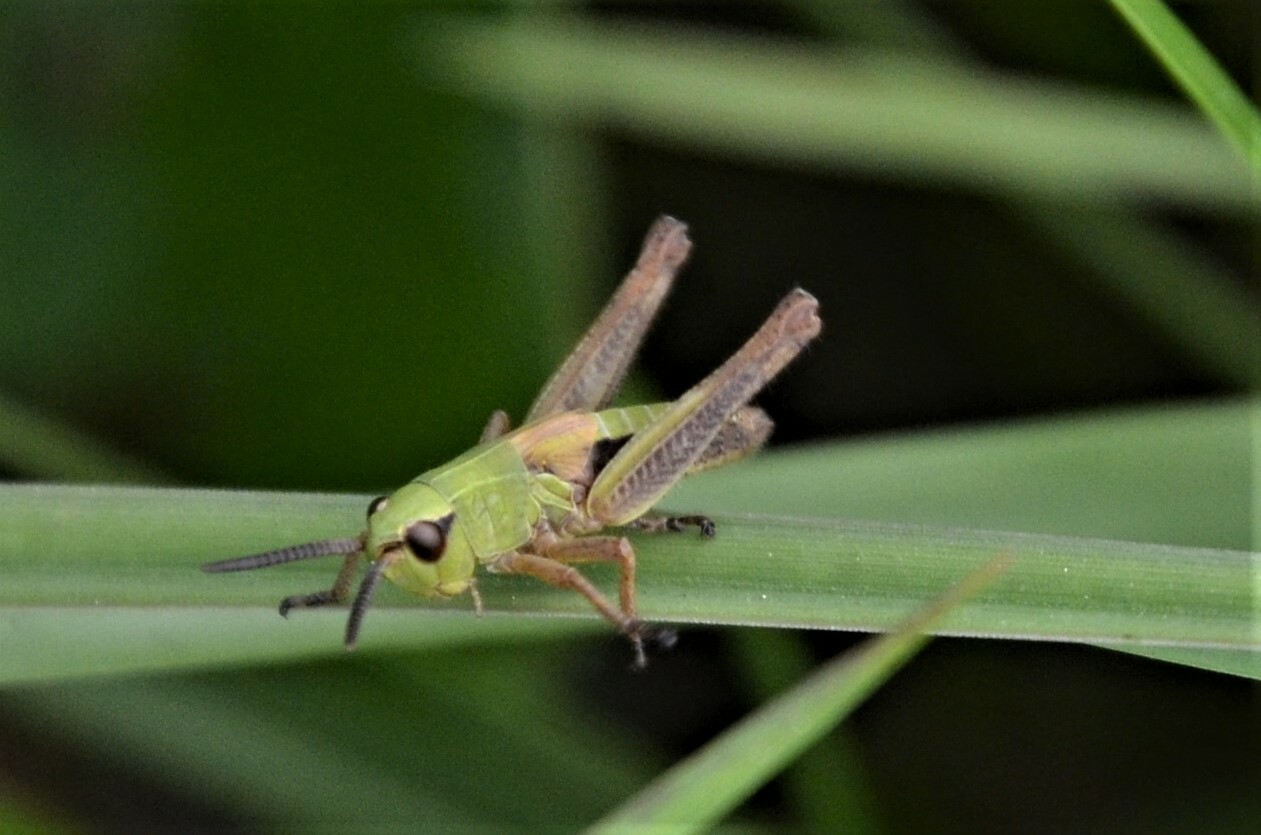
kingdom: Animalia
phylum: Arthropoda
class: Insecta
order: Orthoptera
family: Acrididae
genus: Pseudochorthippus
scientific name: Pseudochorthippus parallelus
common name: Meadow grasshopper
